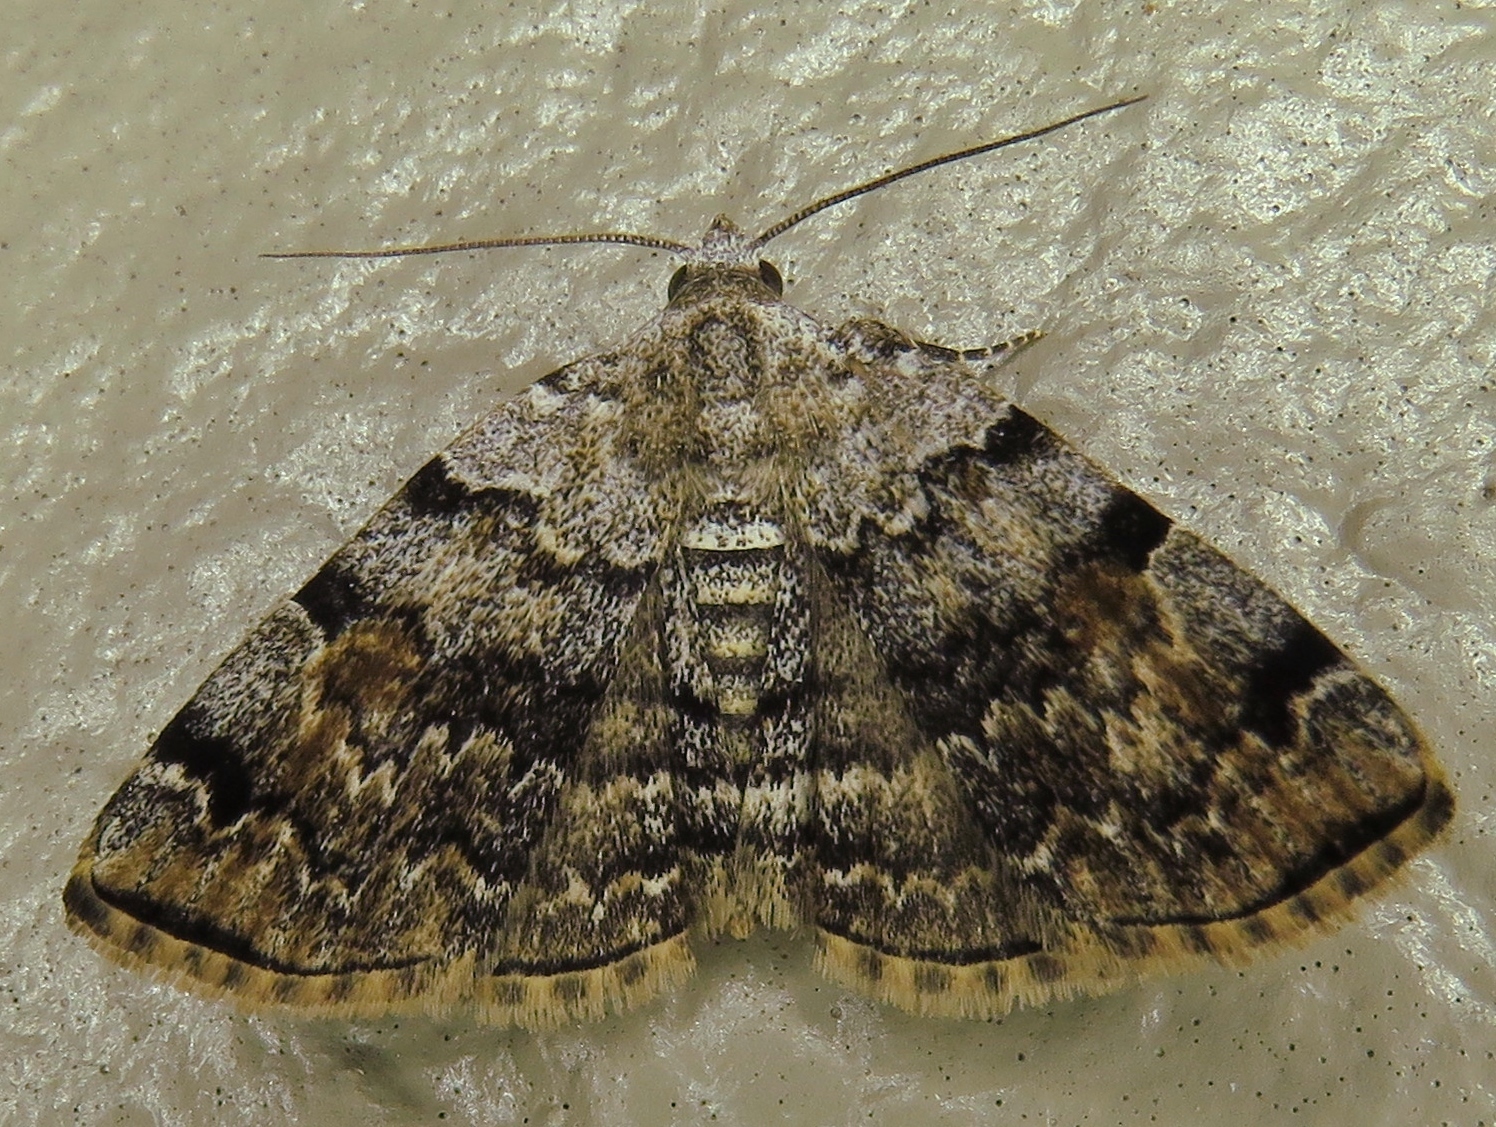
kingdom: Animalia
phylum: Arthropoda
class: Insecta
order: Lepidoptera
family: Erebidae
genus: Idia
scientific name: Idia americalis
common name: American idia moth
